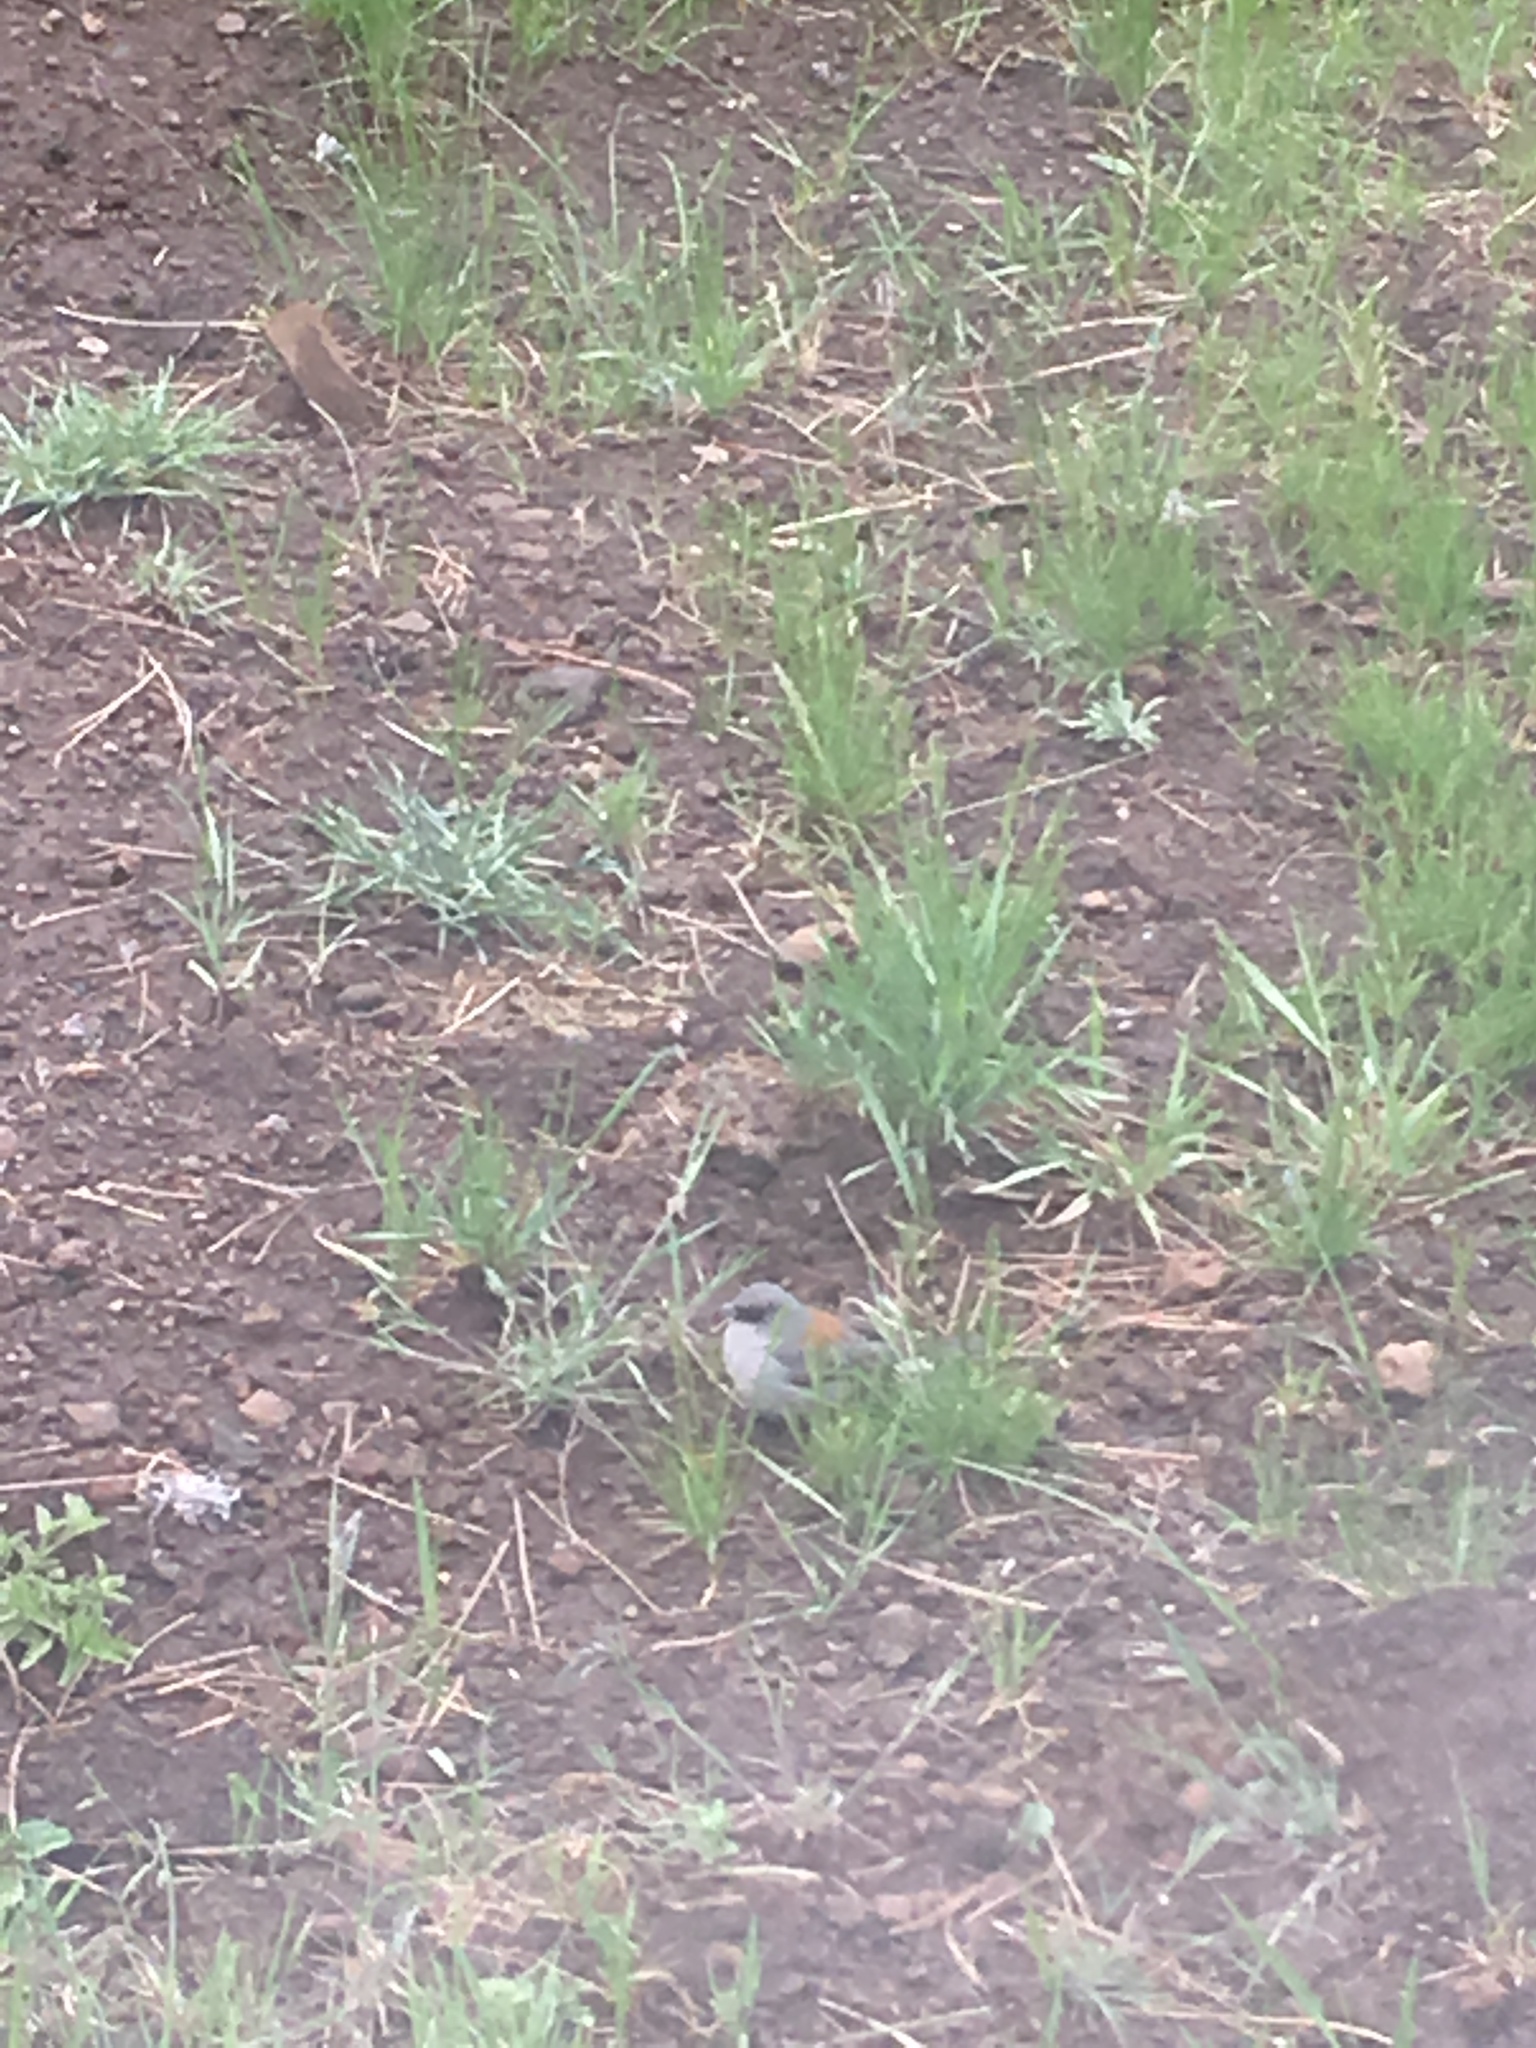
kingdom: Animalia
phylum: Chordata
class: Aves
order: Passeriformes
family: Passerellidae
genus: Junco
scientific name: Junco hyemalis
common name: Dark-eyed junco
